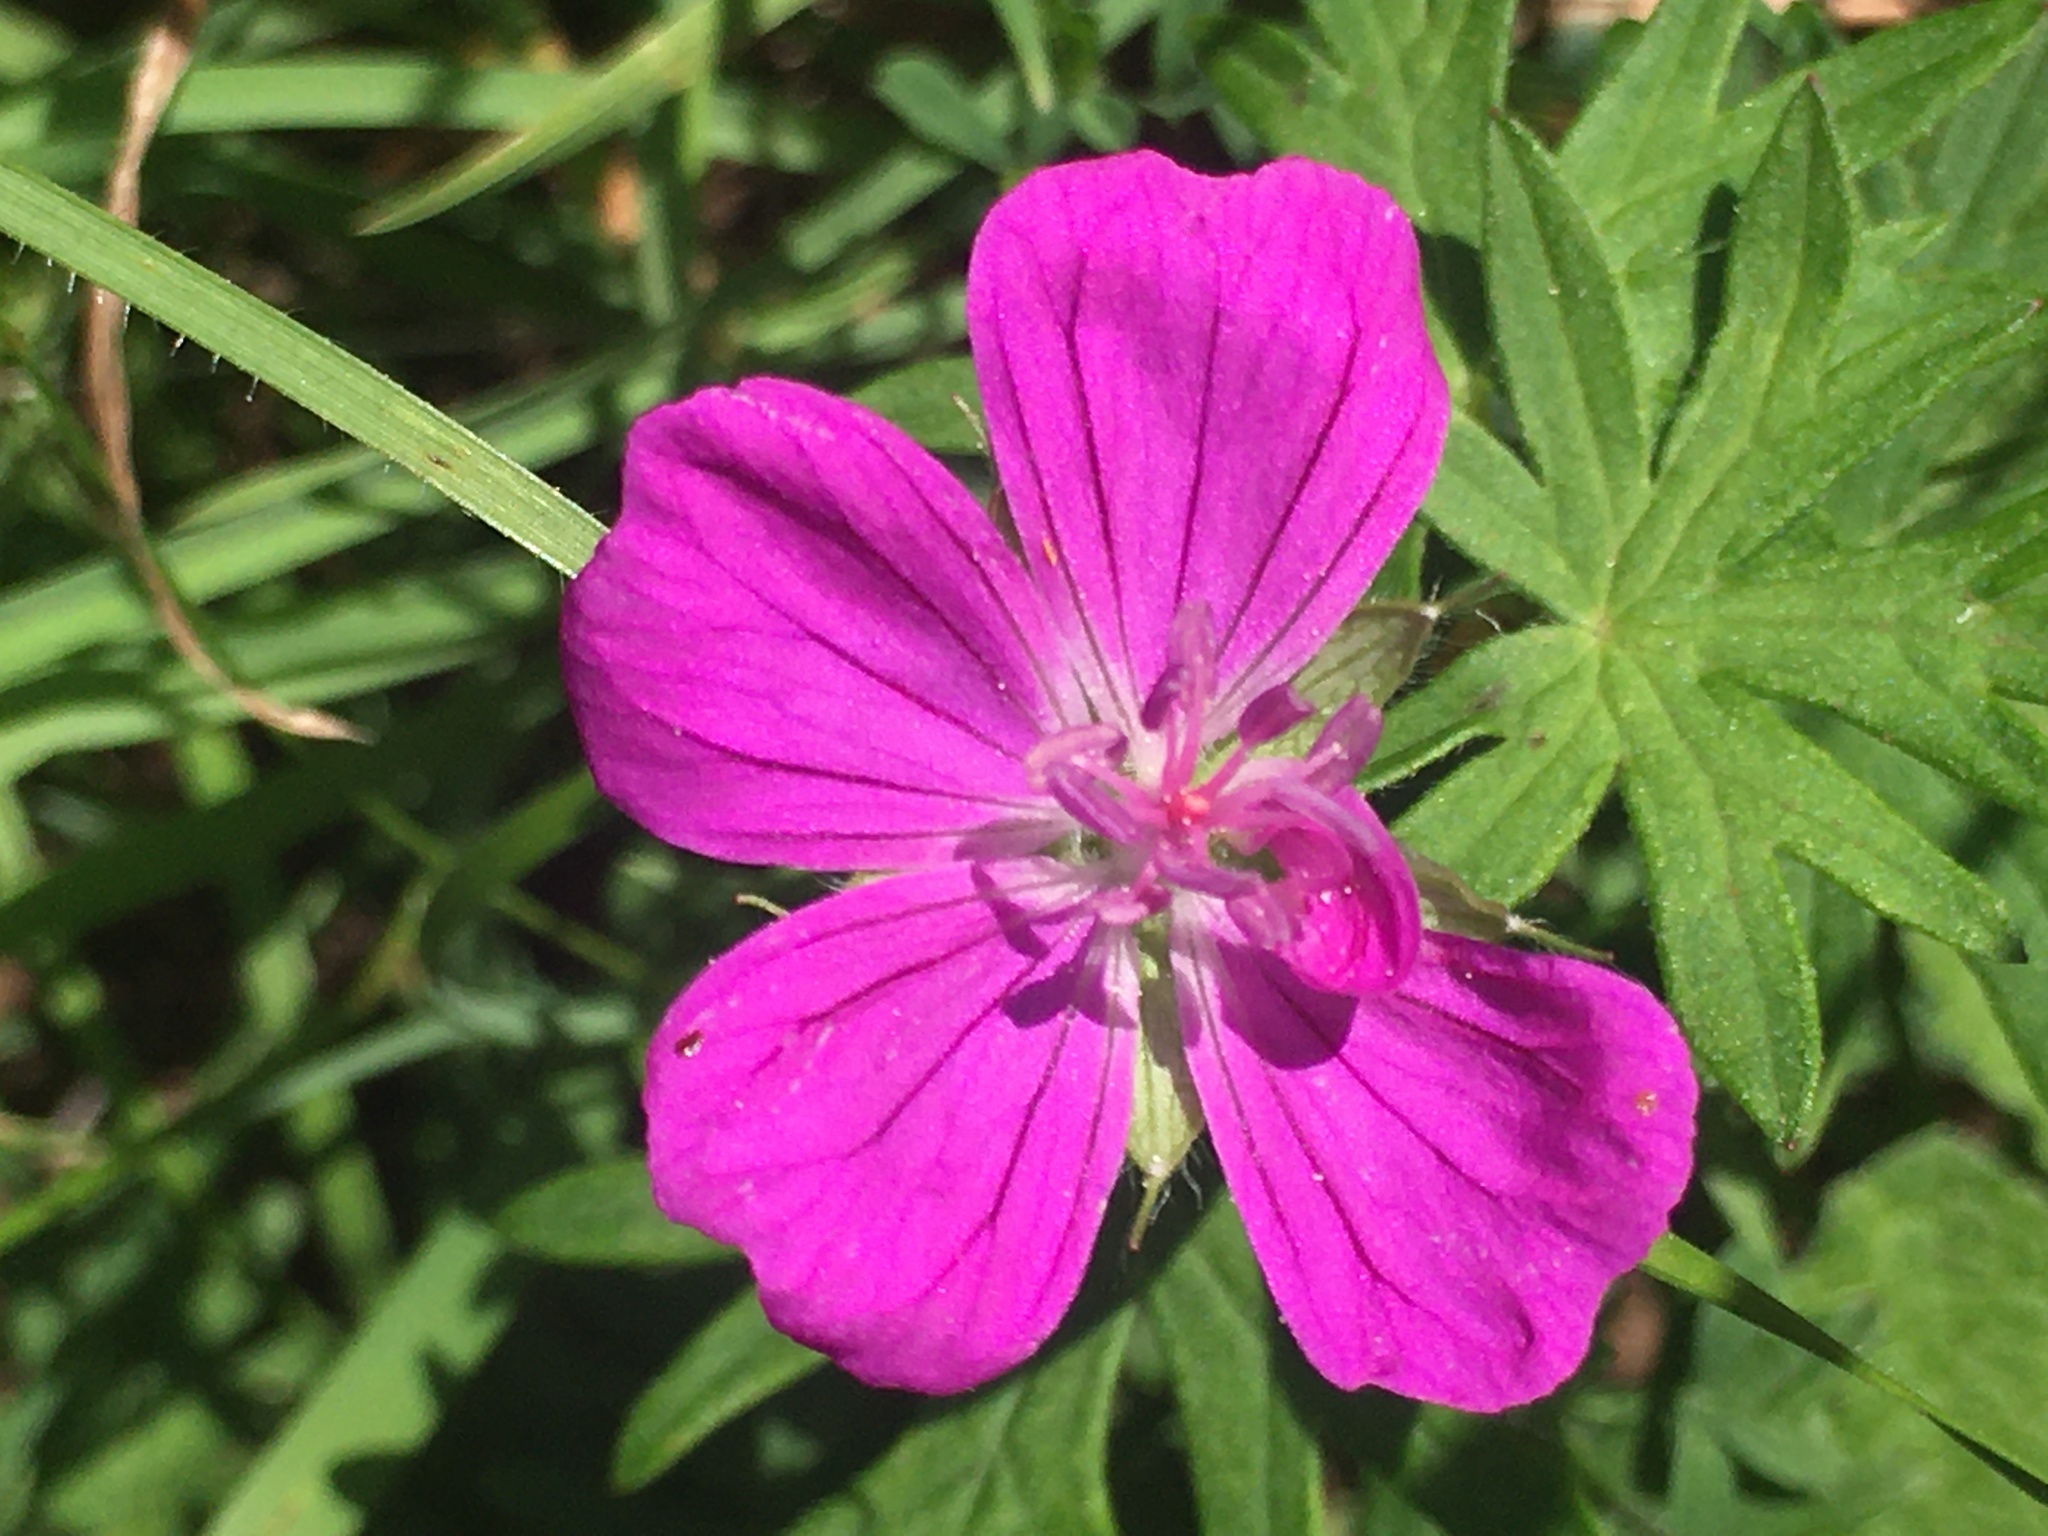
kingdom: Plantae
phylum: Tracheophyta
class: Magnoliopsida
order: Geraniales
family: Geraniaceae
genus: Geranium
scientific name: Geranium sanguineum
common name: Bloody crane's-bill
